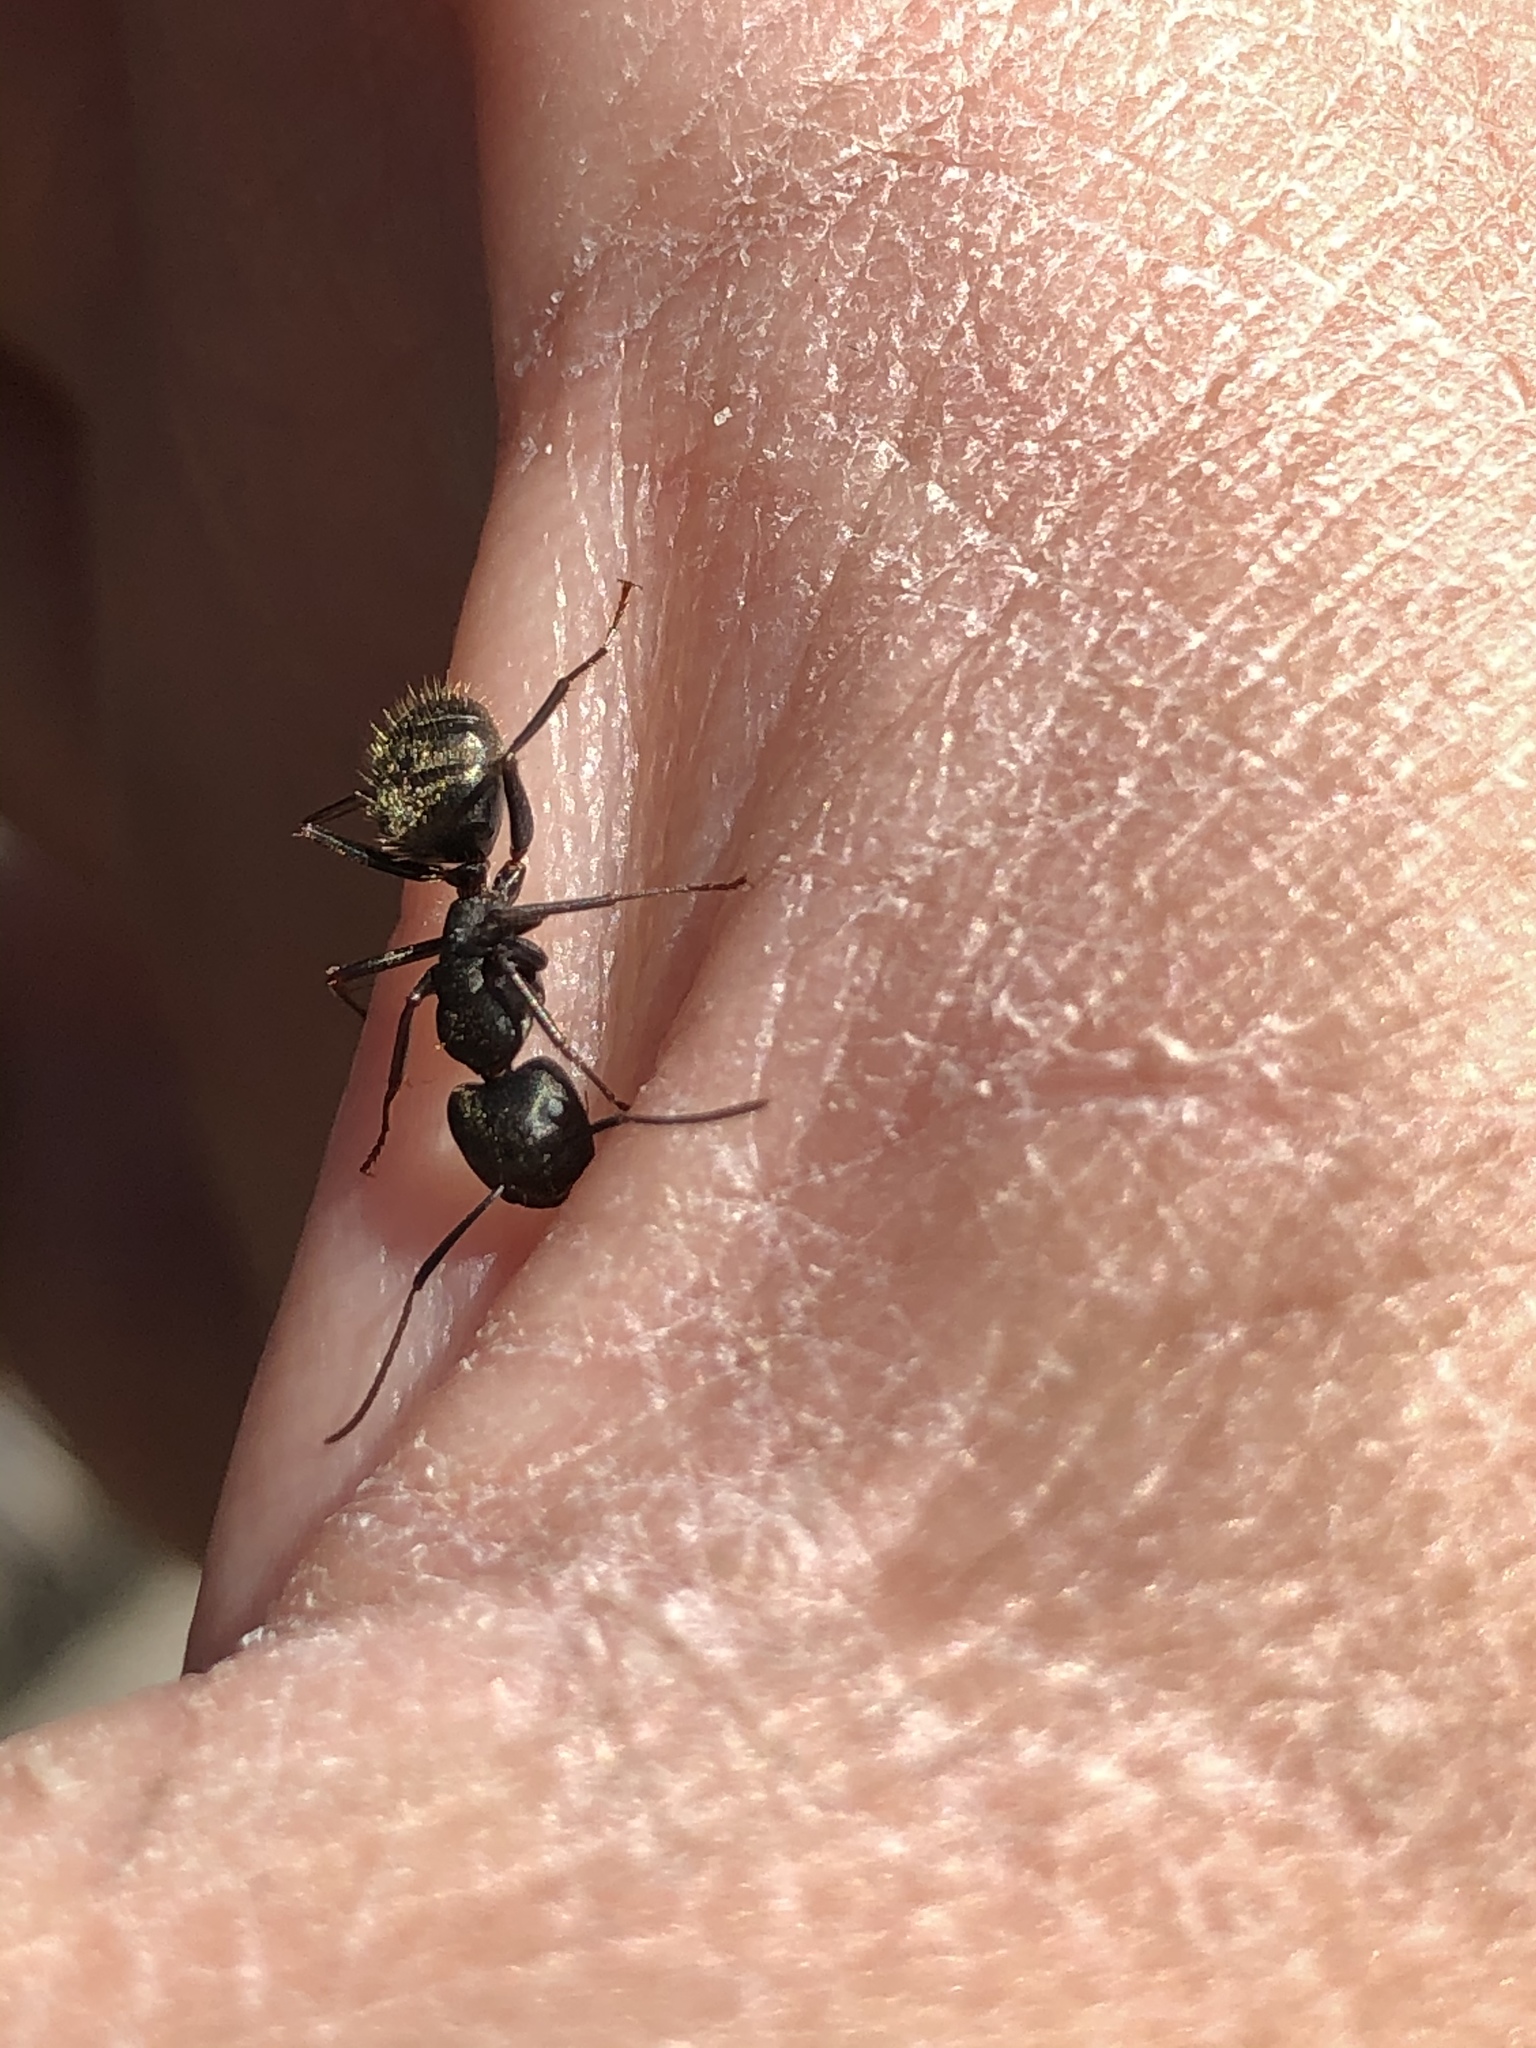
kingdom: Animalia
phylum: Arthropoda
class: Insecta
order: Hymenoptera
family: Formicidae
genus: Camponotus
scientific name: Camponotus pennsylvanicus
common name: Black carpenter ant
